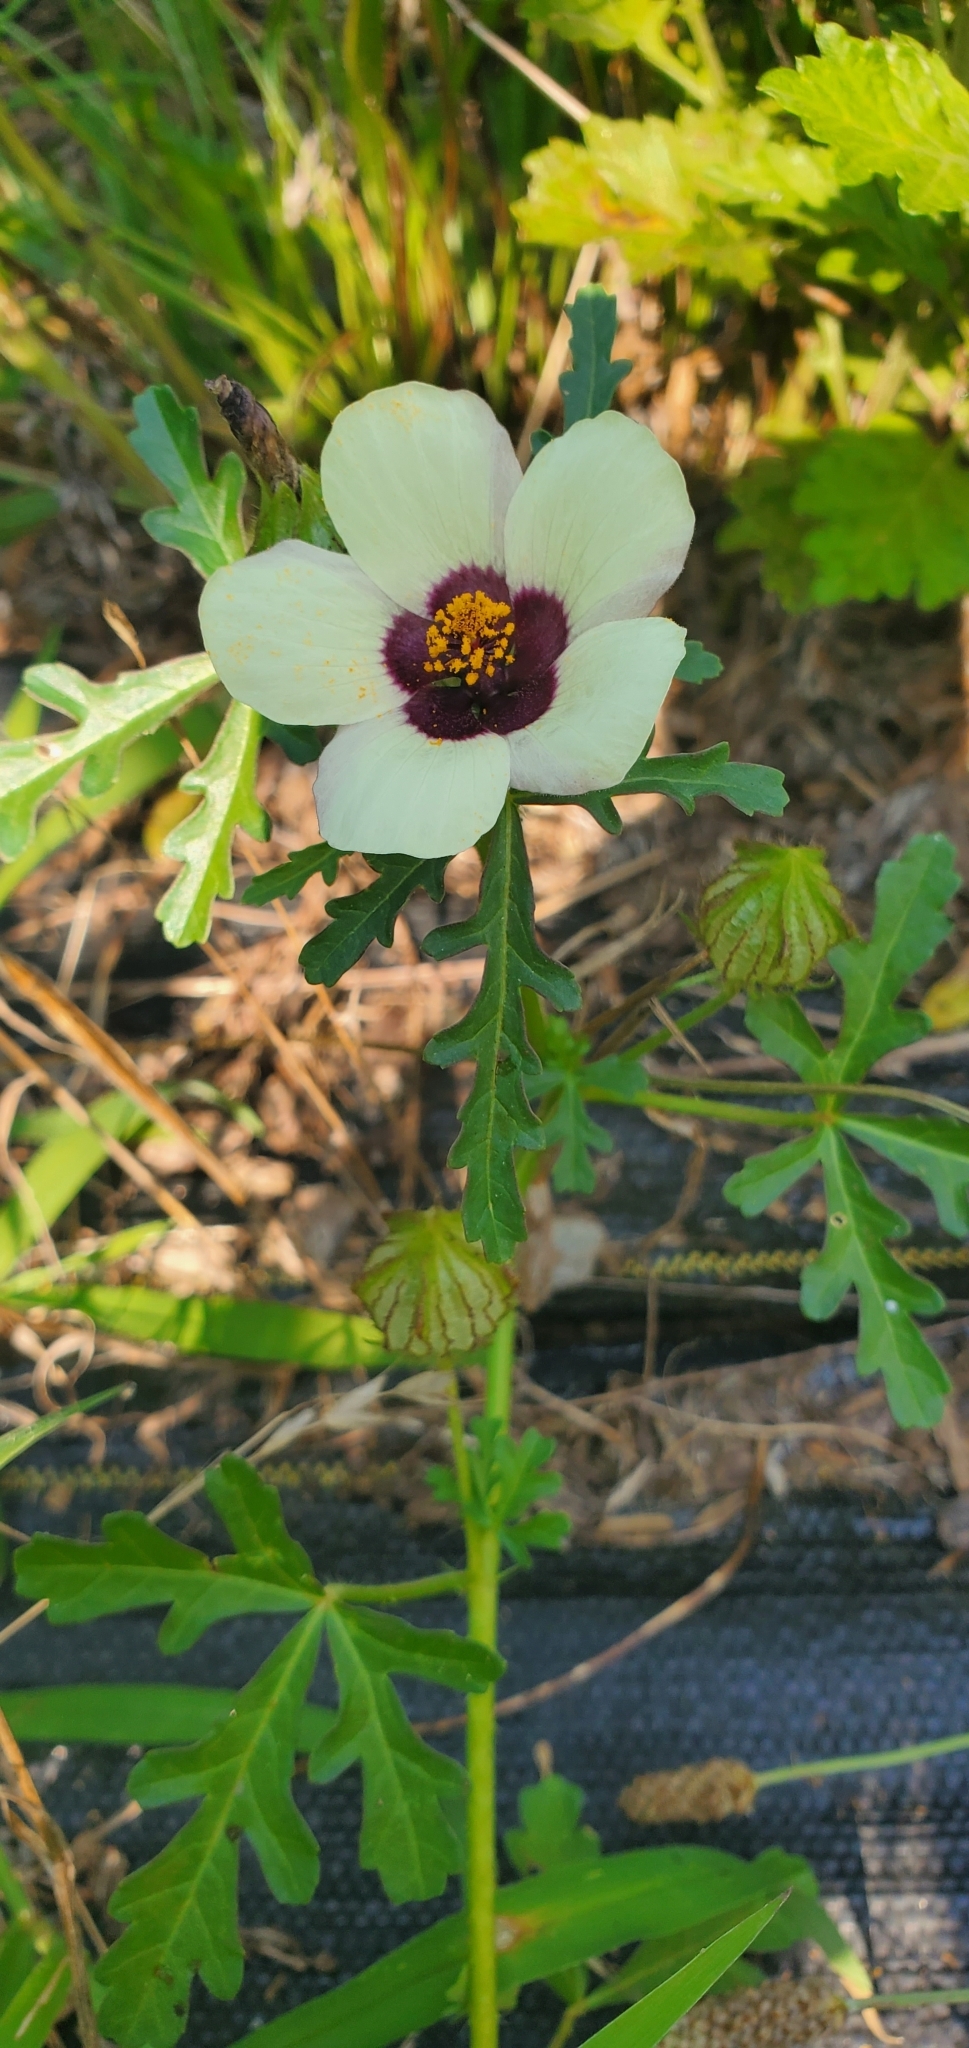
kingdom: Plantae
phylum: Tracheophyta
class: Magnoliopsida
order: Malvales
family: Malvaceae
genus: Hibiscus
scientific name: Hibiscus trionum
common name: Bladder ketmia
